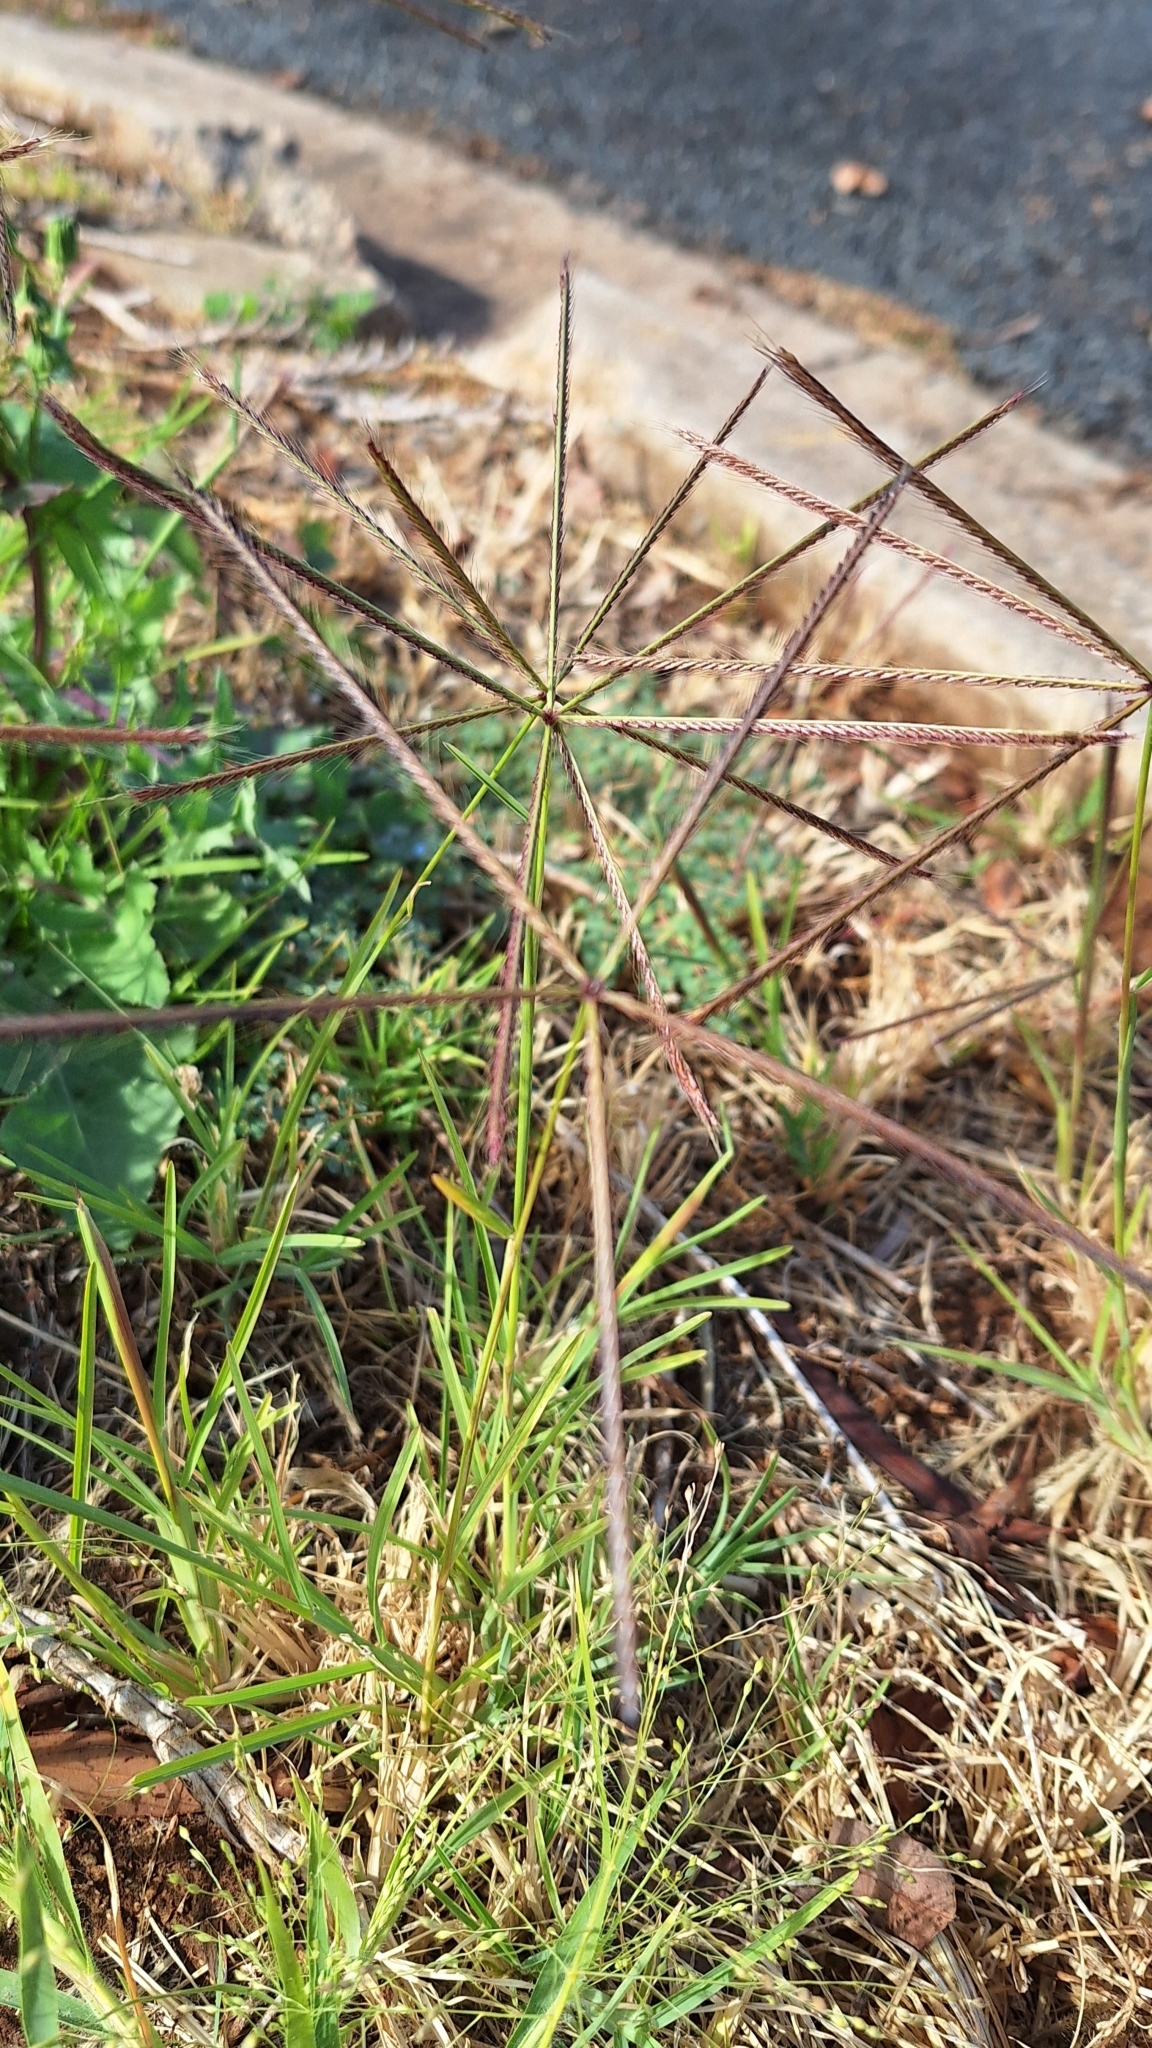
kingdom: Plantae
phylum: Tracheophyta
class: Liliopsida
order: Poales
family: Poaceae
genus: Chloris
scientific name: Chloris truncata
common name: Windmill-grass
